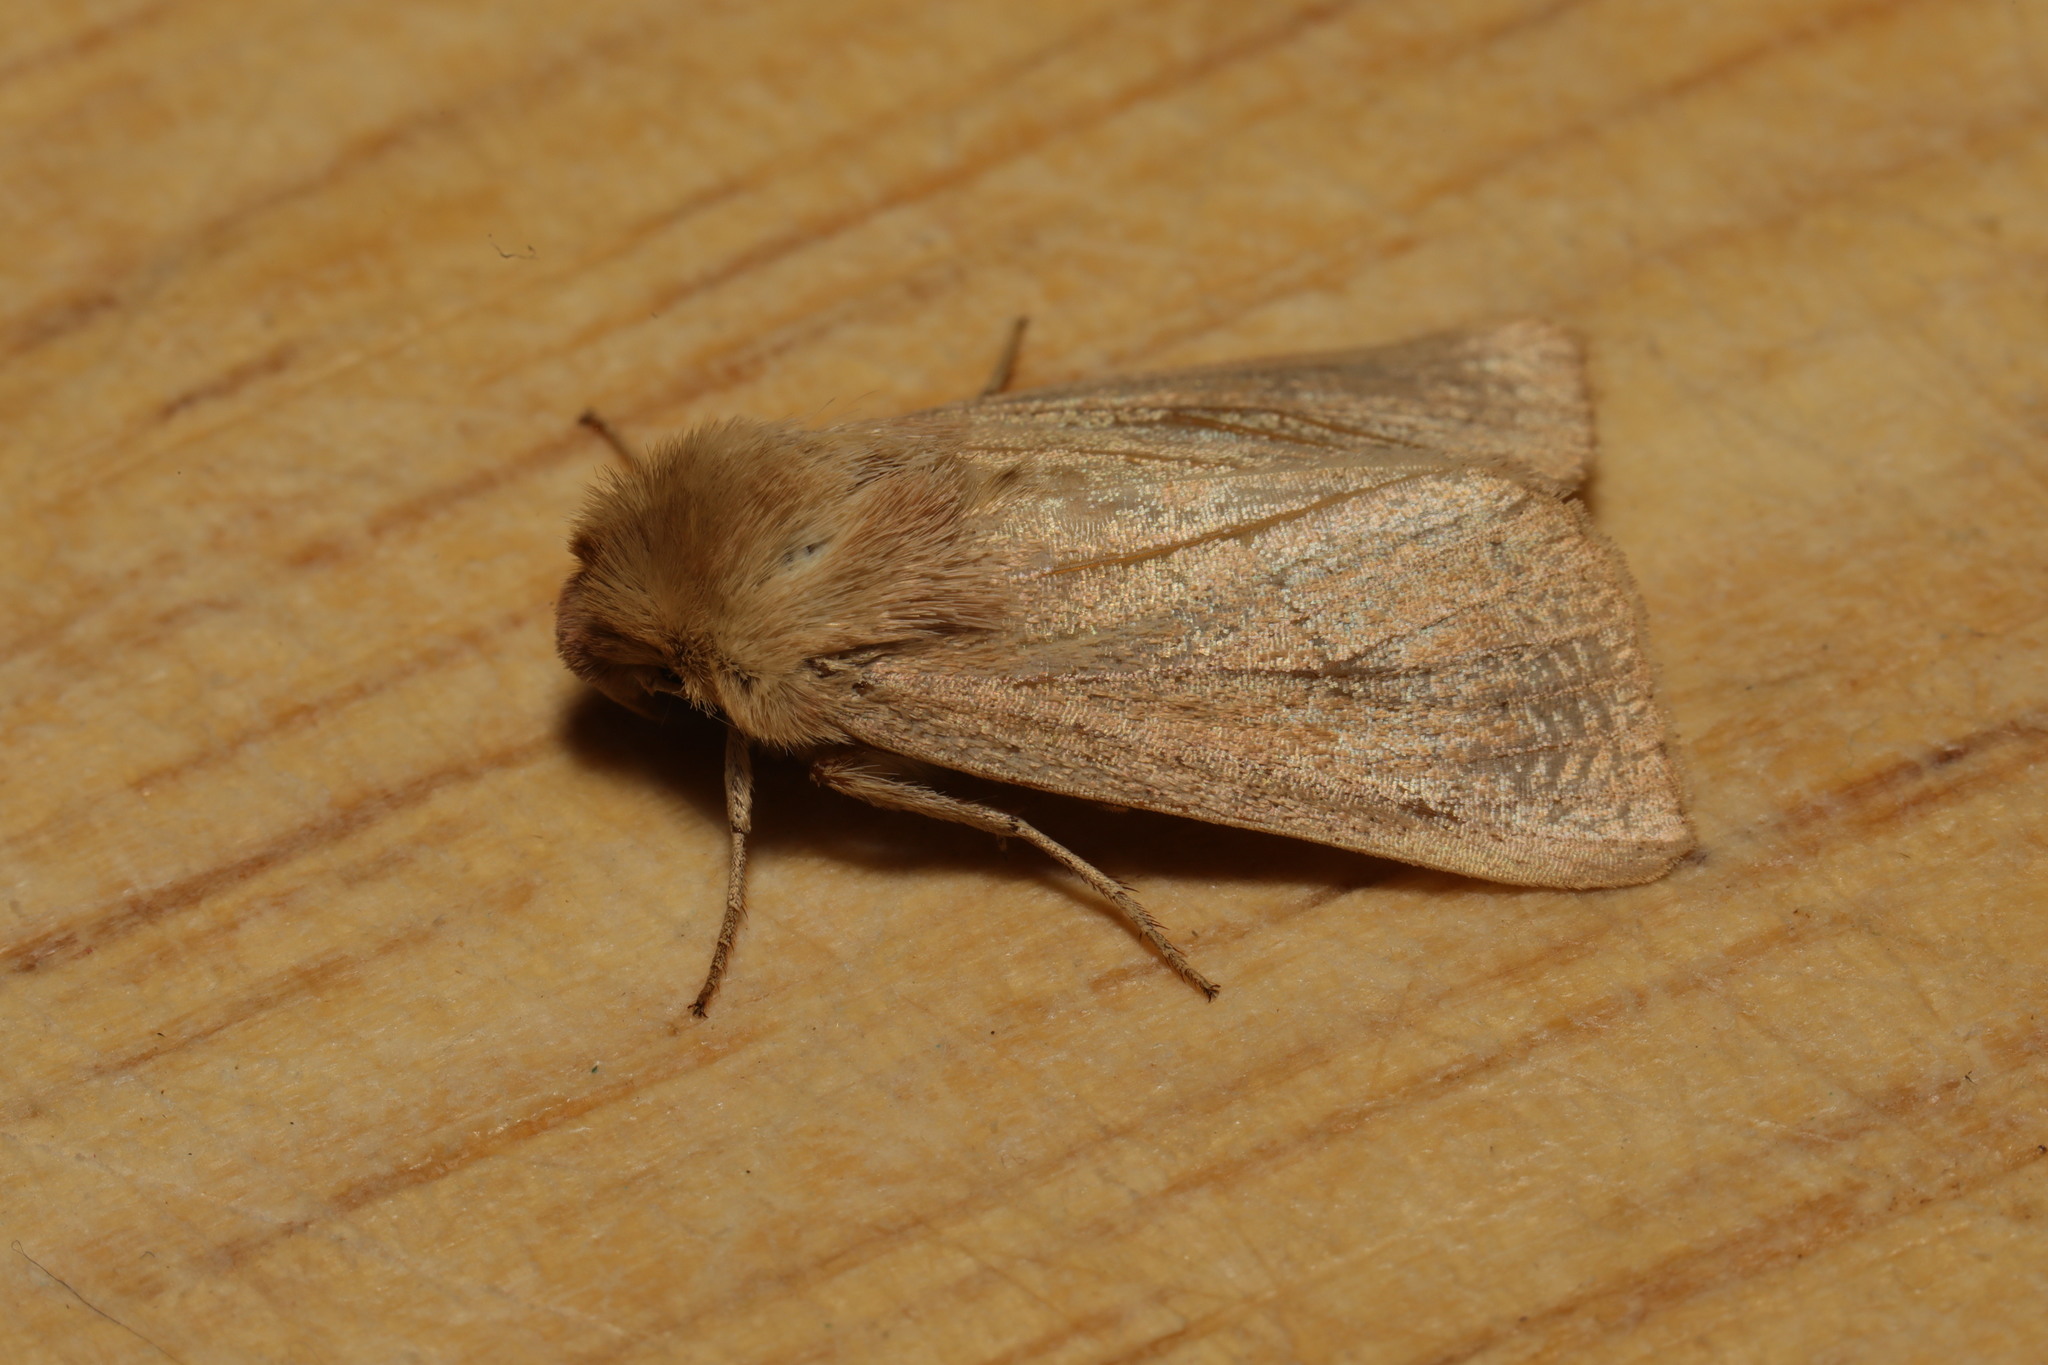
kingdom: Animalia
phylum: Arthropoda
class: Insecta
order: Lepidoptera
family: Noctuidae
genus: Mythimna
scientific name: Mythimna ferrago
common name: Clay
